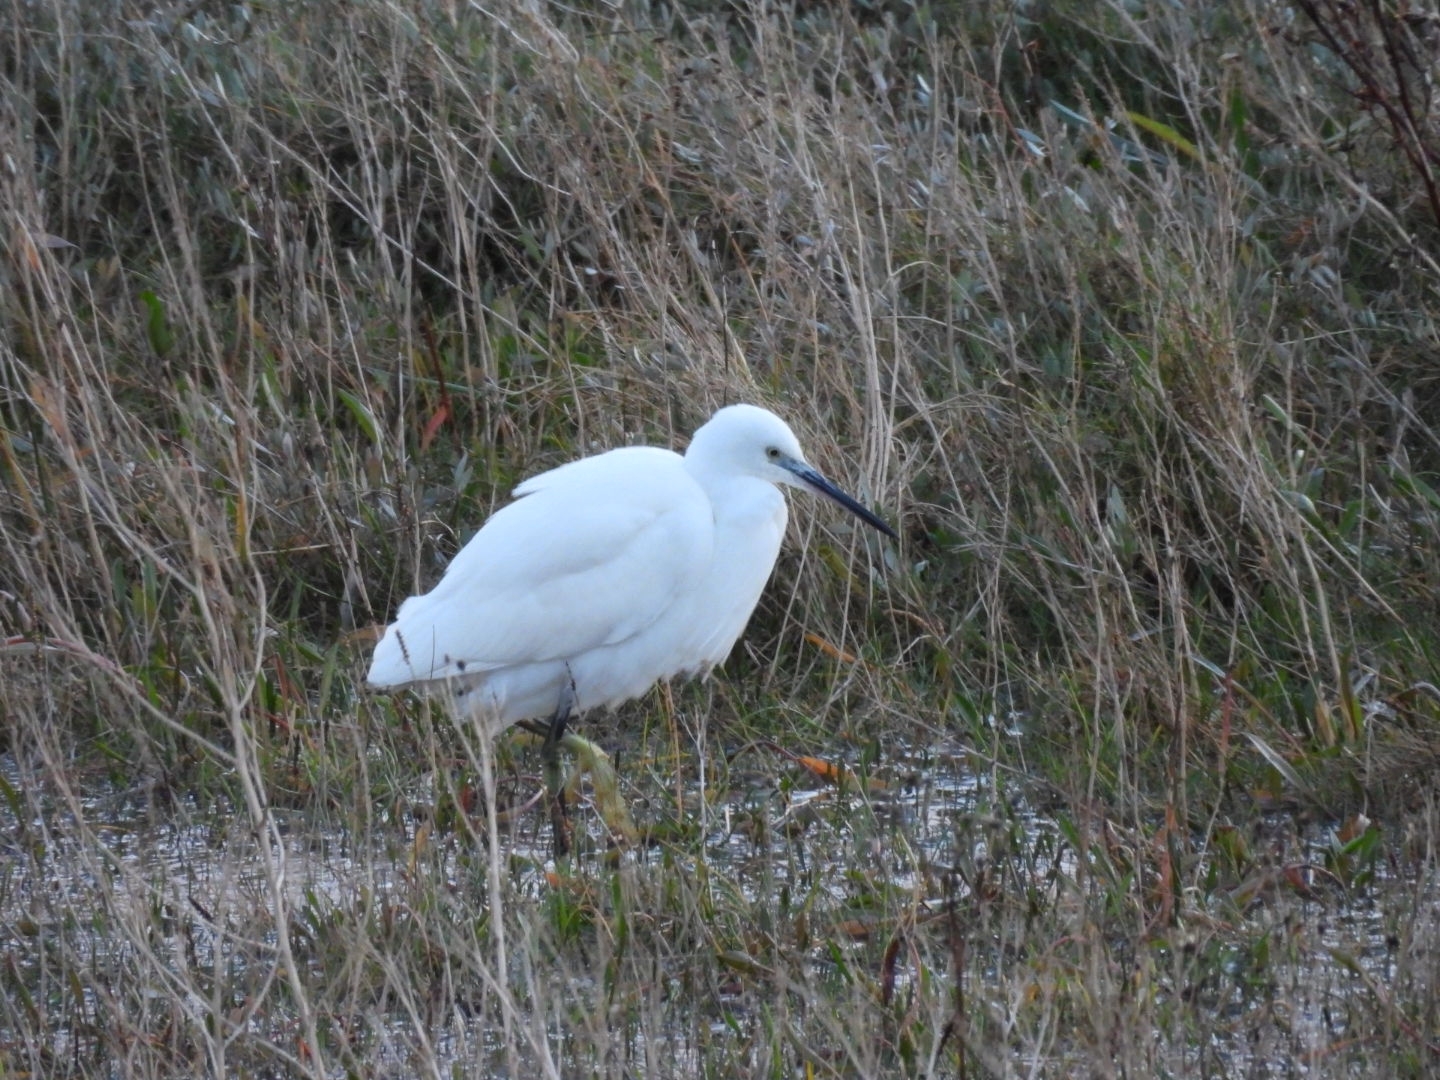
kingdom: Animalia
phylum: Chordata
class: Aves
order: Pelecaniformes
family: Ardeidae
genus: Egretta
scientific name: Egretta garzetta
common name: Little egret
